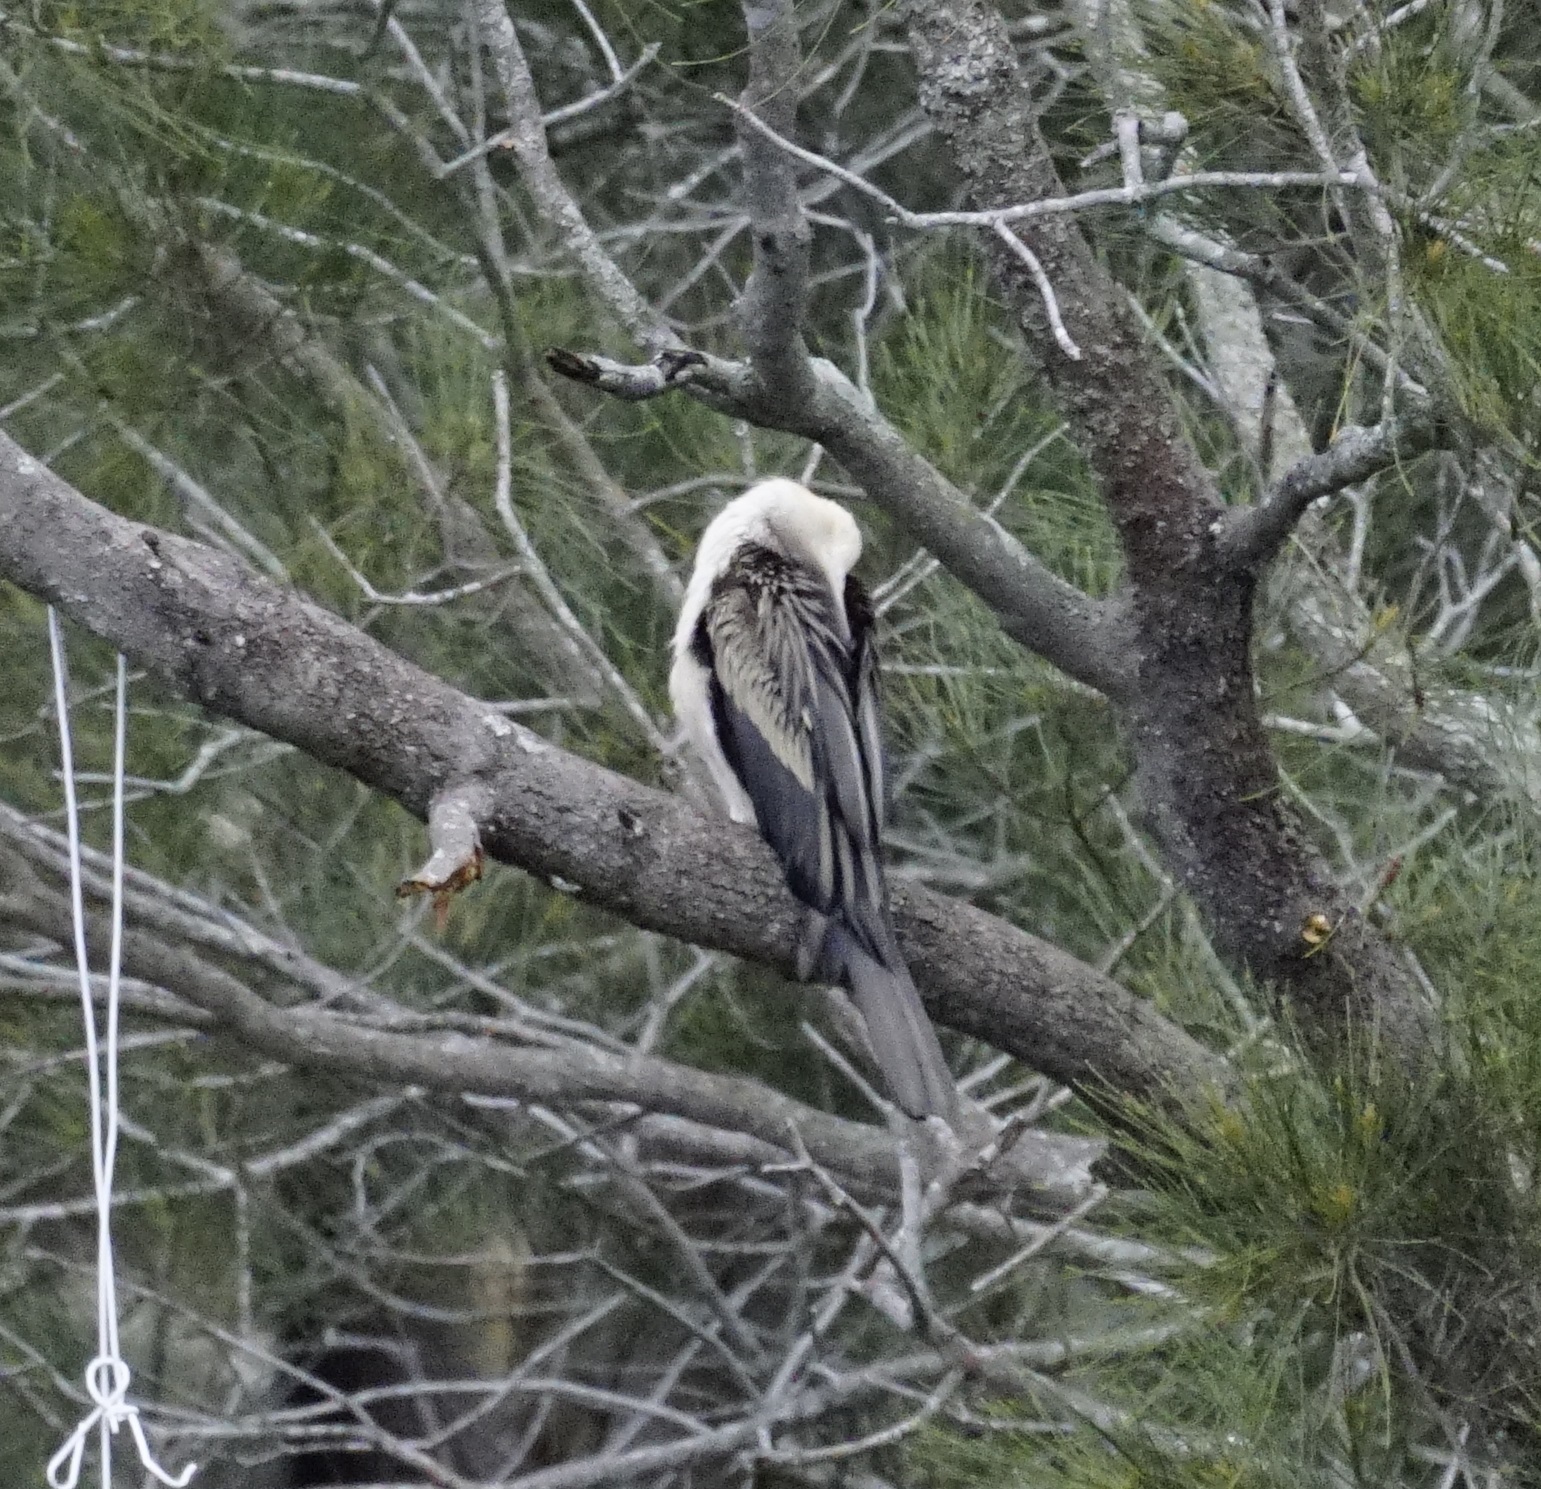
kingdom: Animalia
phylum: Chordata
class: Aves
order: Suliformes
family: Anhingidae
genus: Anhinga
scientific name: Anhinga novaehollandiae
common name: Australasian darter
